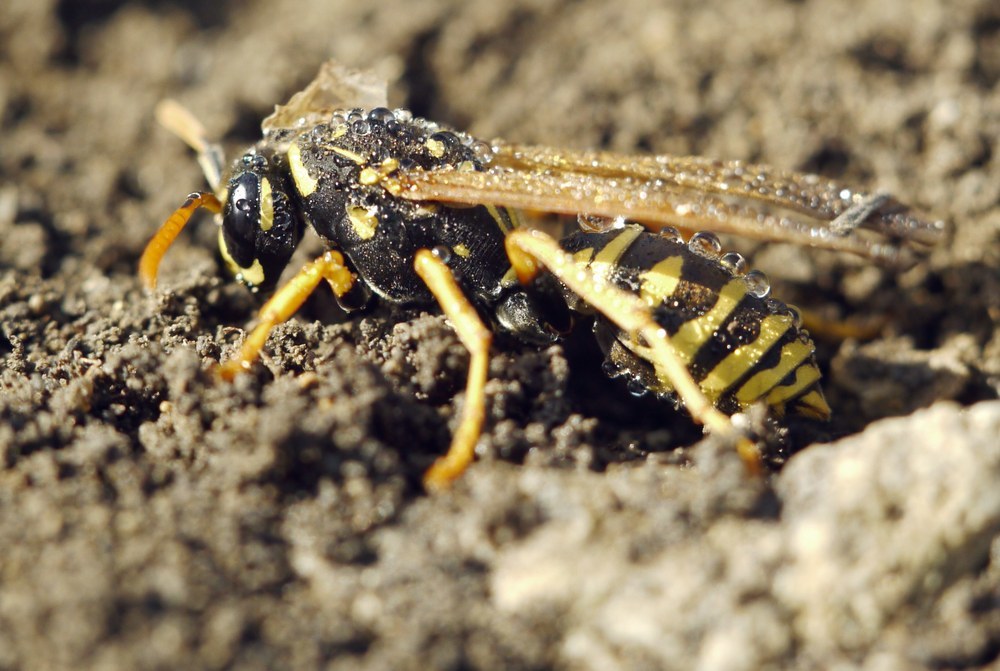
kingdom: Animalia
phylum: Arthropoda
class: Insecta
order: Hymenoptera
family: Eumenidae
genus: Polistes
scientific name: Polistes dominula
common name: Paper wasp
